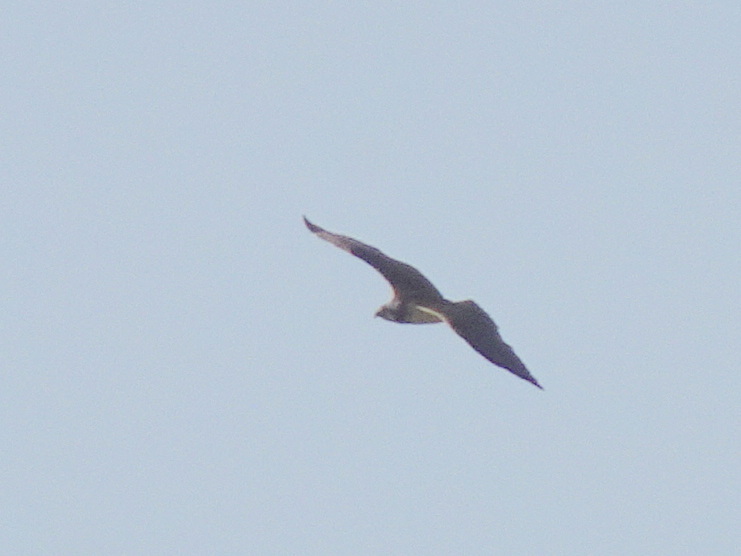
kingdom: Animalia
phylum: Chordata
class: Aves
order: Accipitriformes
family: Pandionidae
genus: Pandion
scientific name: Pandion haliaetus
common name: Osprey
